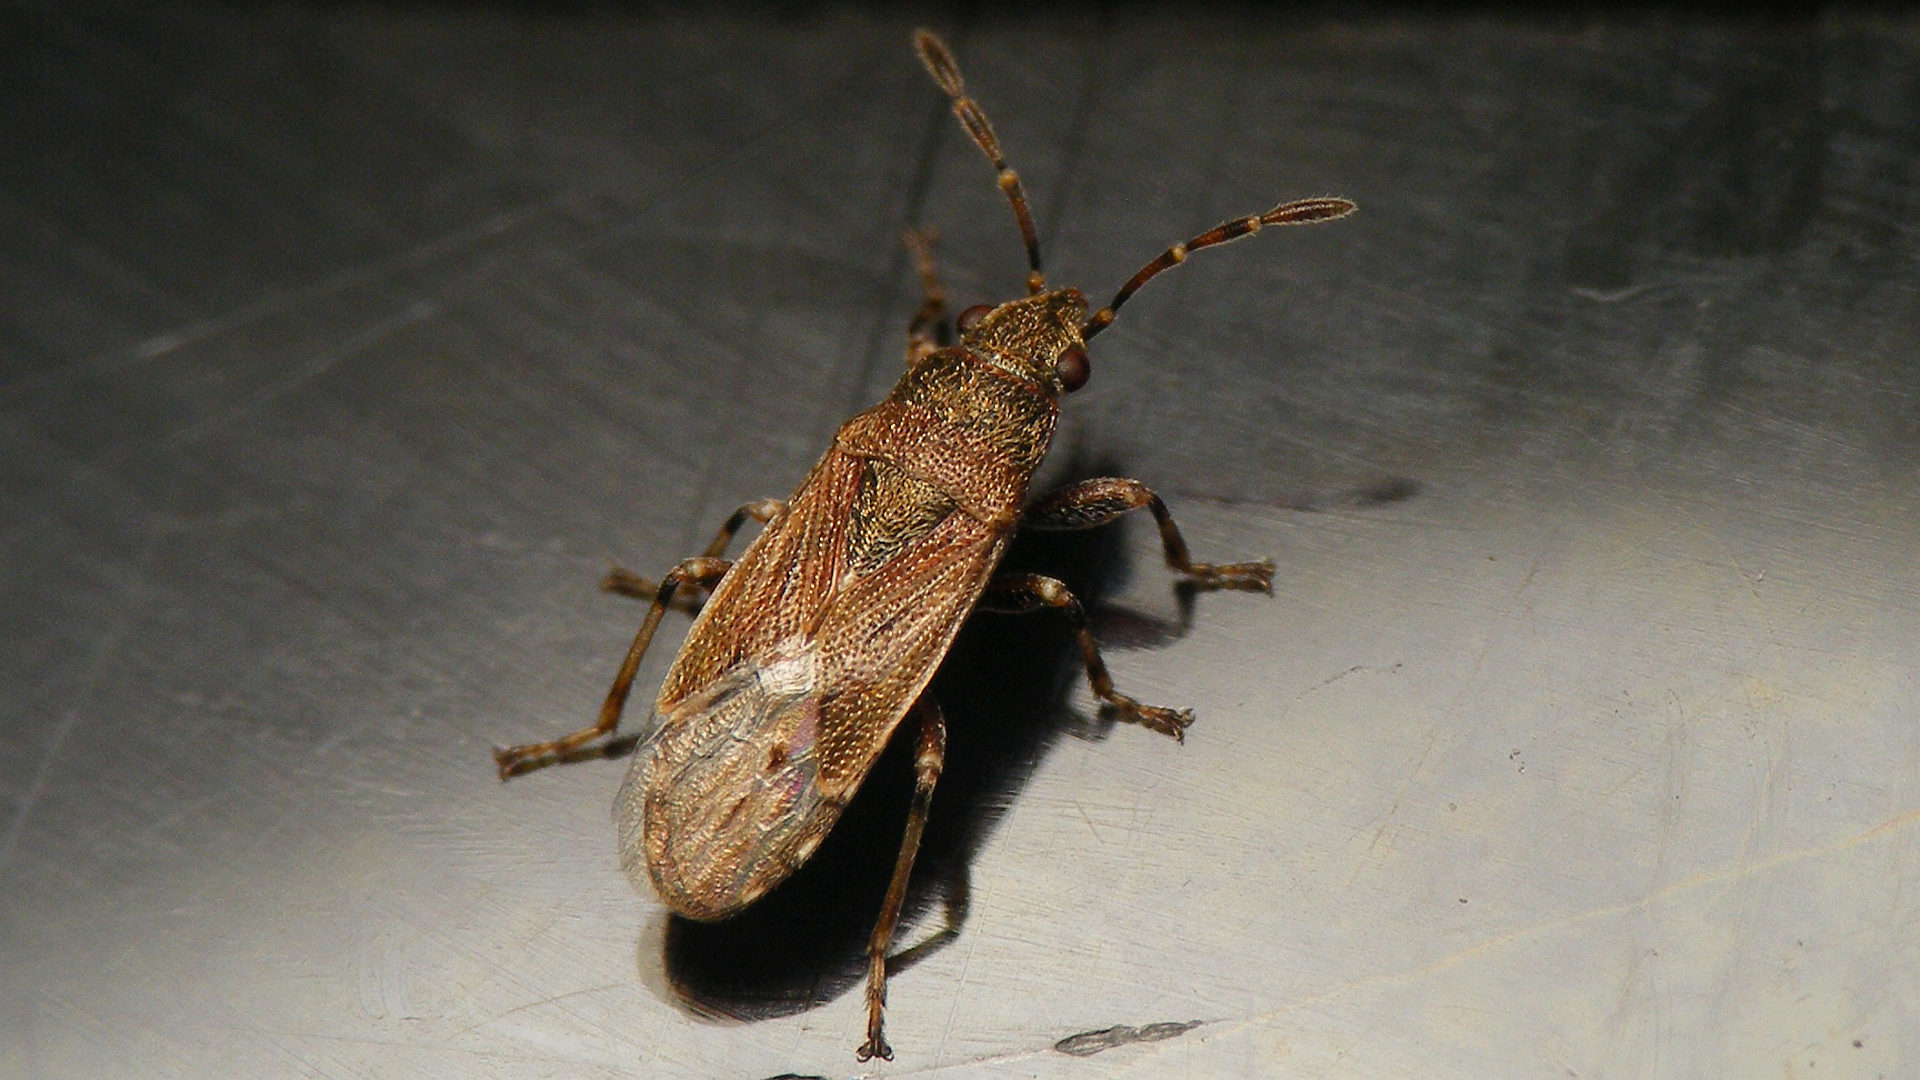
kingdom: Animalia
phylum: Arthropoda
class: Insecta
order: Hemiptera
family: Heterogastridae
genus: Heterogaster
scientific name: Heterogaster canariensis
